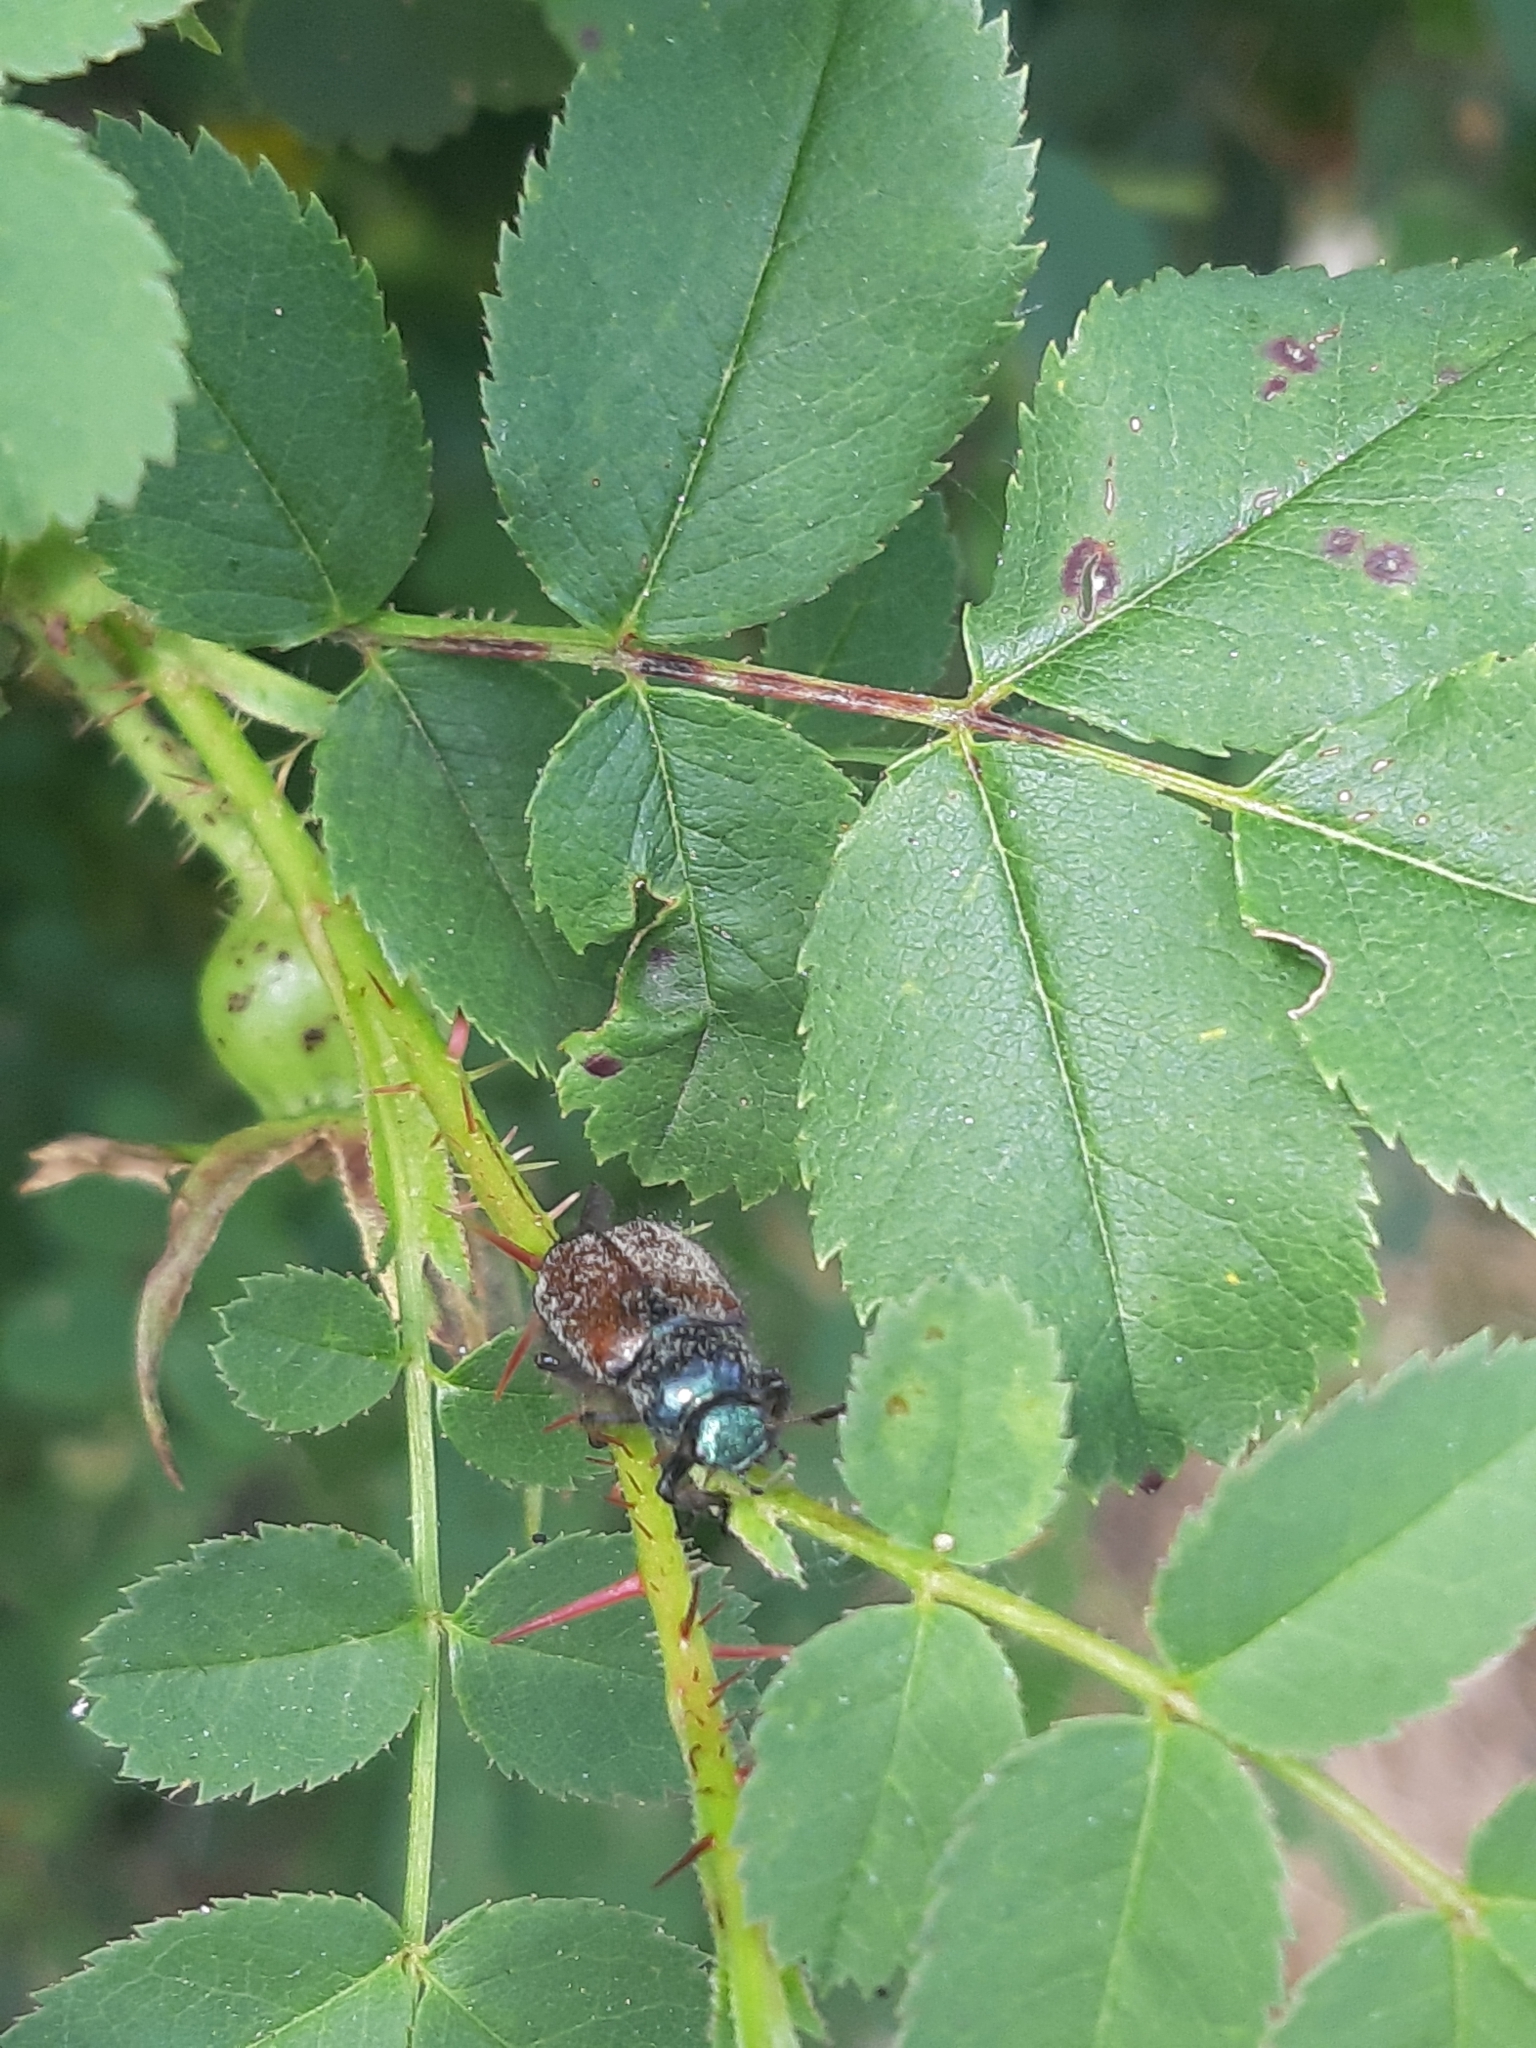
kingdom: Animalia
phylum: Arthropoda
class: Insecta
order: Coleoptera
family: Scarabaeidae
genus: Phyllopertha
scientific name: Phyllopertha horticola
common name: Garden chafer
